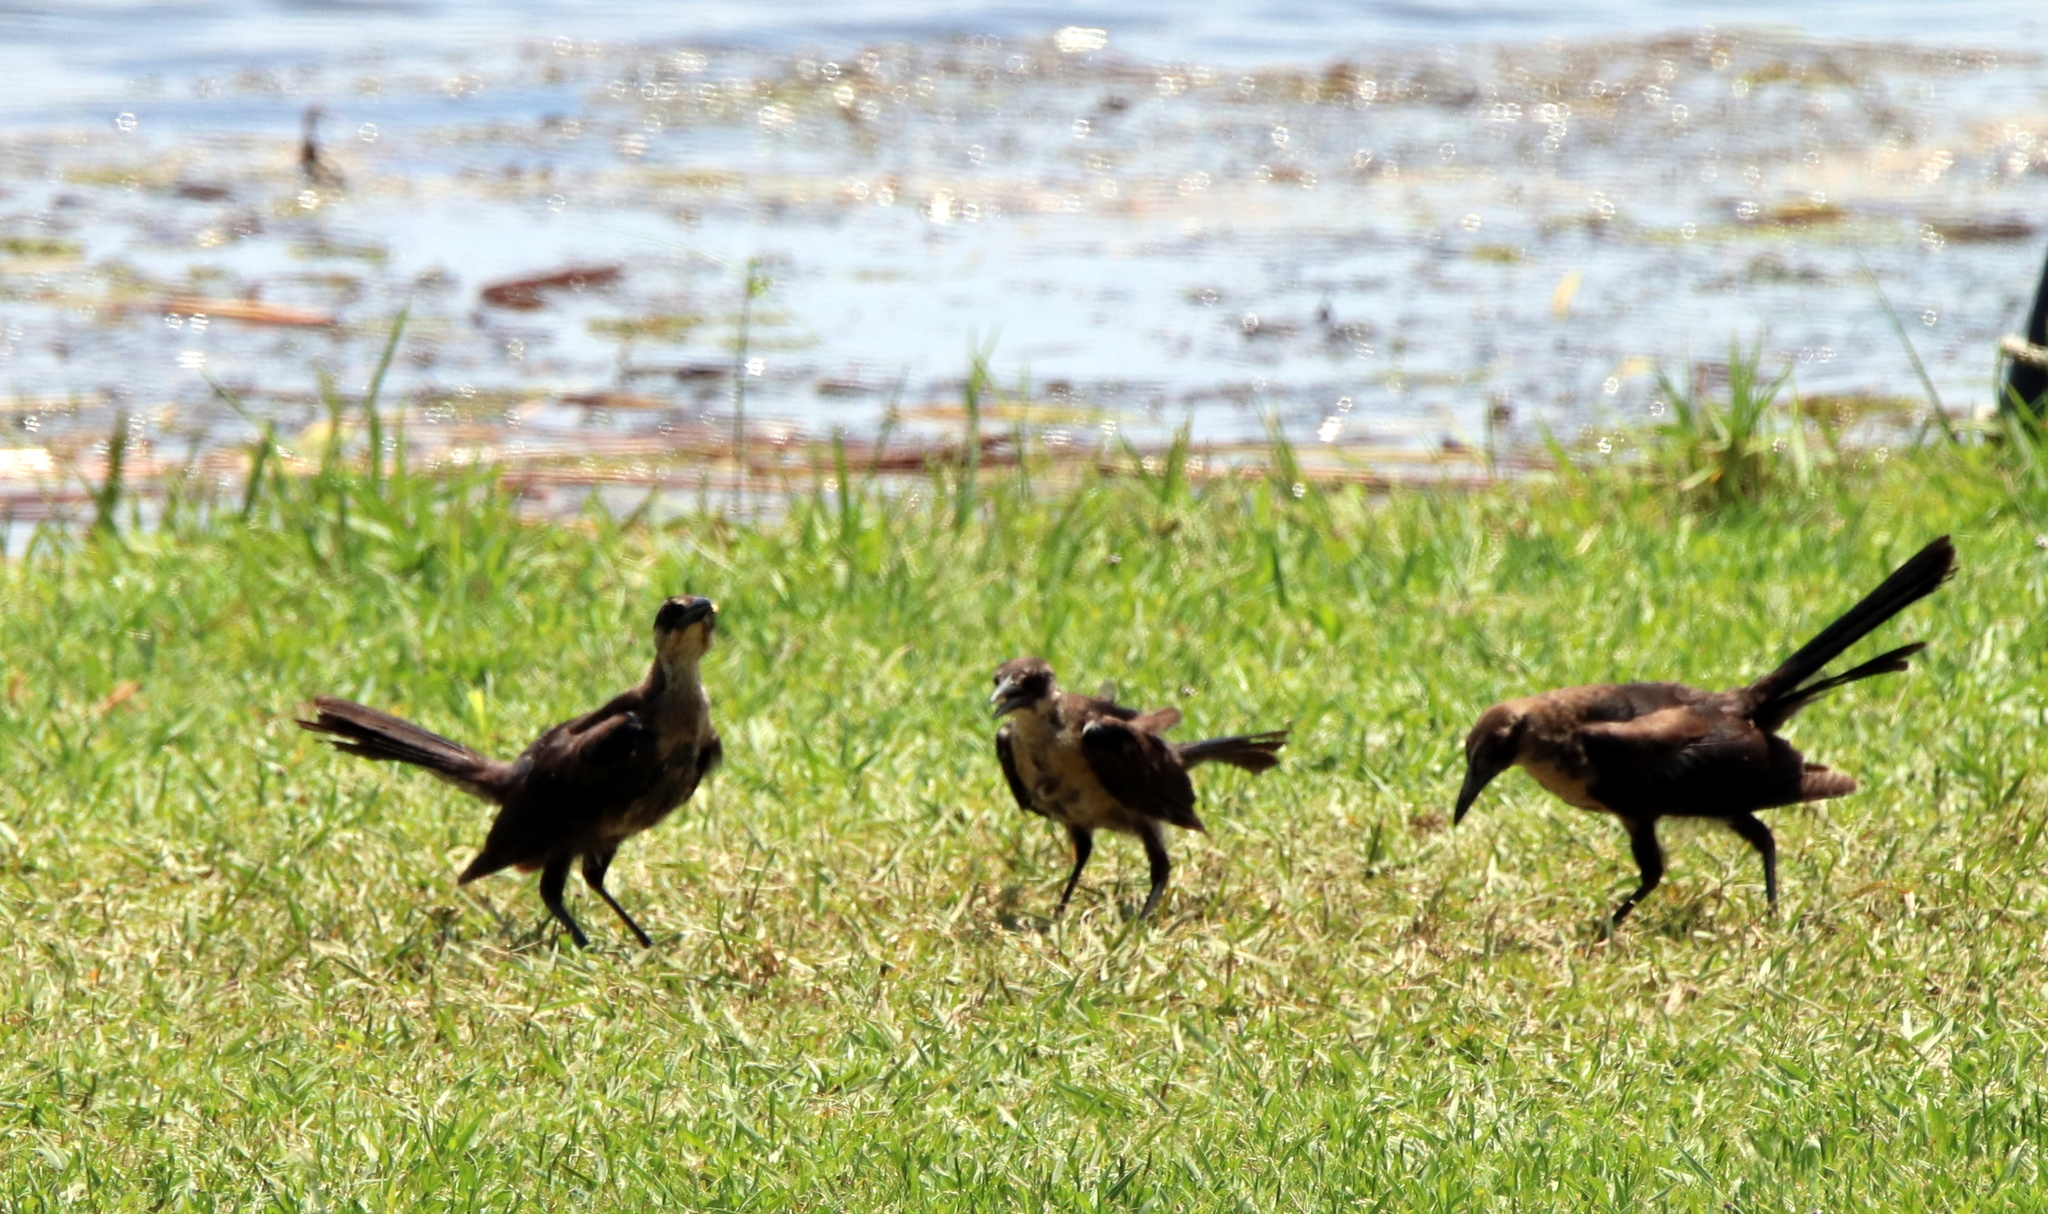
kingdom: Animalia
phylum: Chordata
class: Aves
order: Passeriformes
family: Icteridae
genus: Quiscalus
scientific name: Quiscalus major
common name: Boat-tailed grackle
